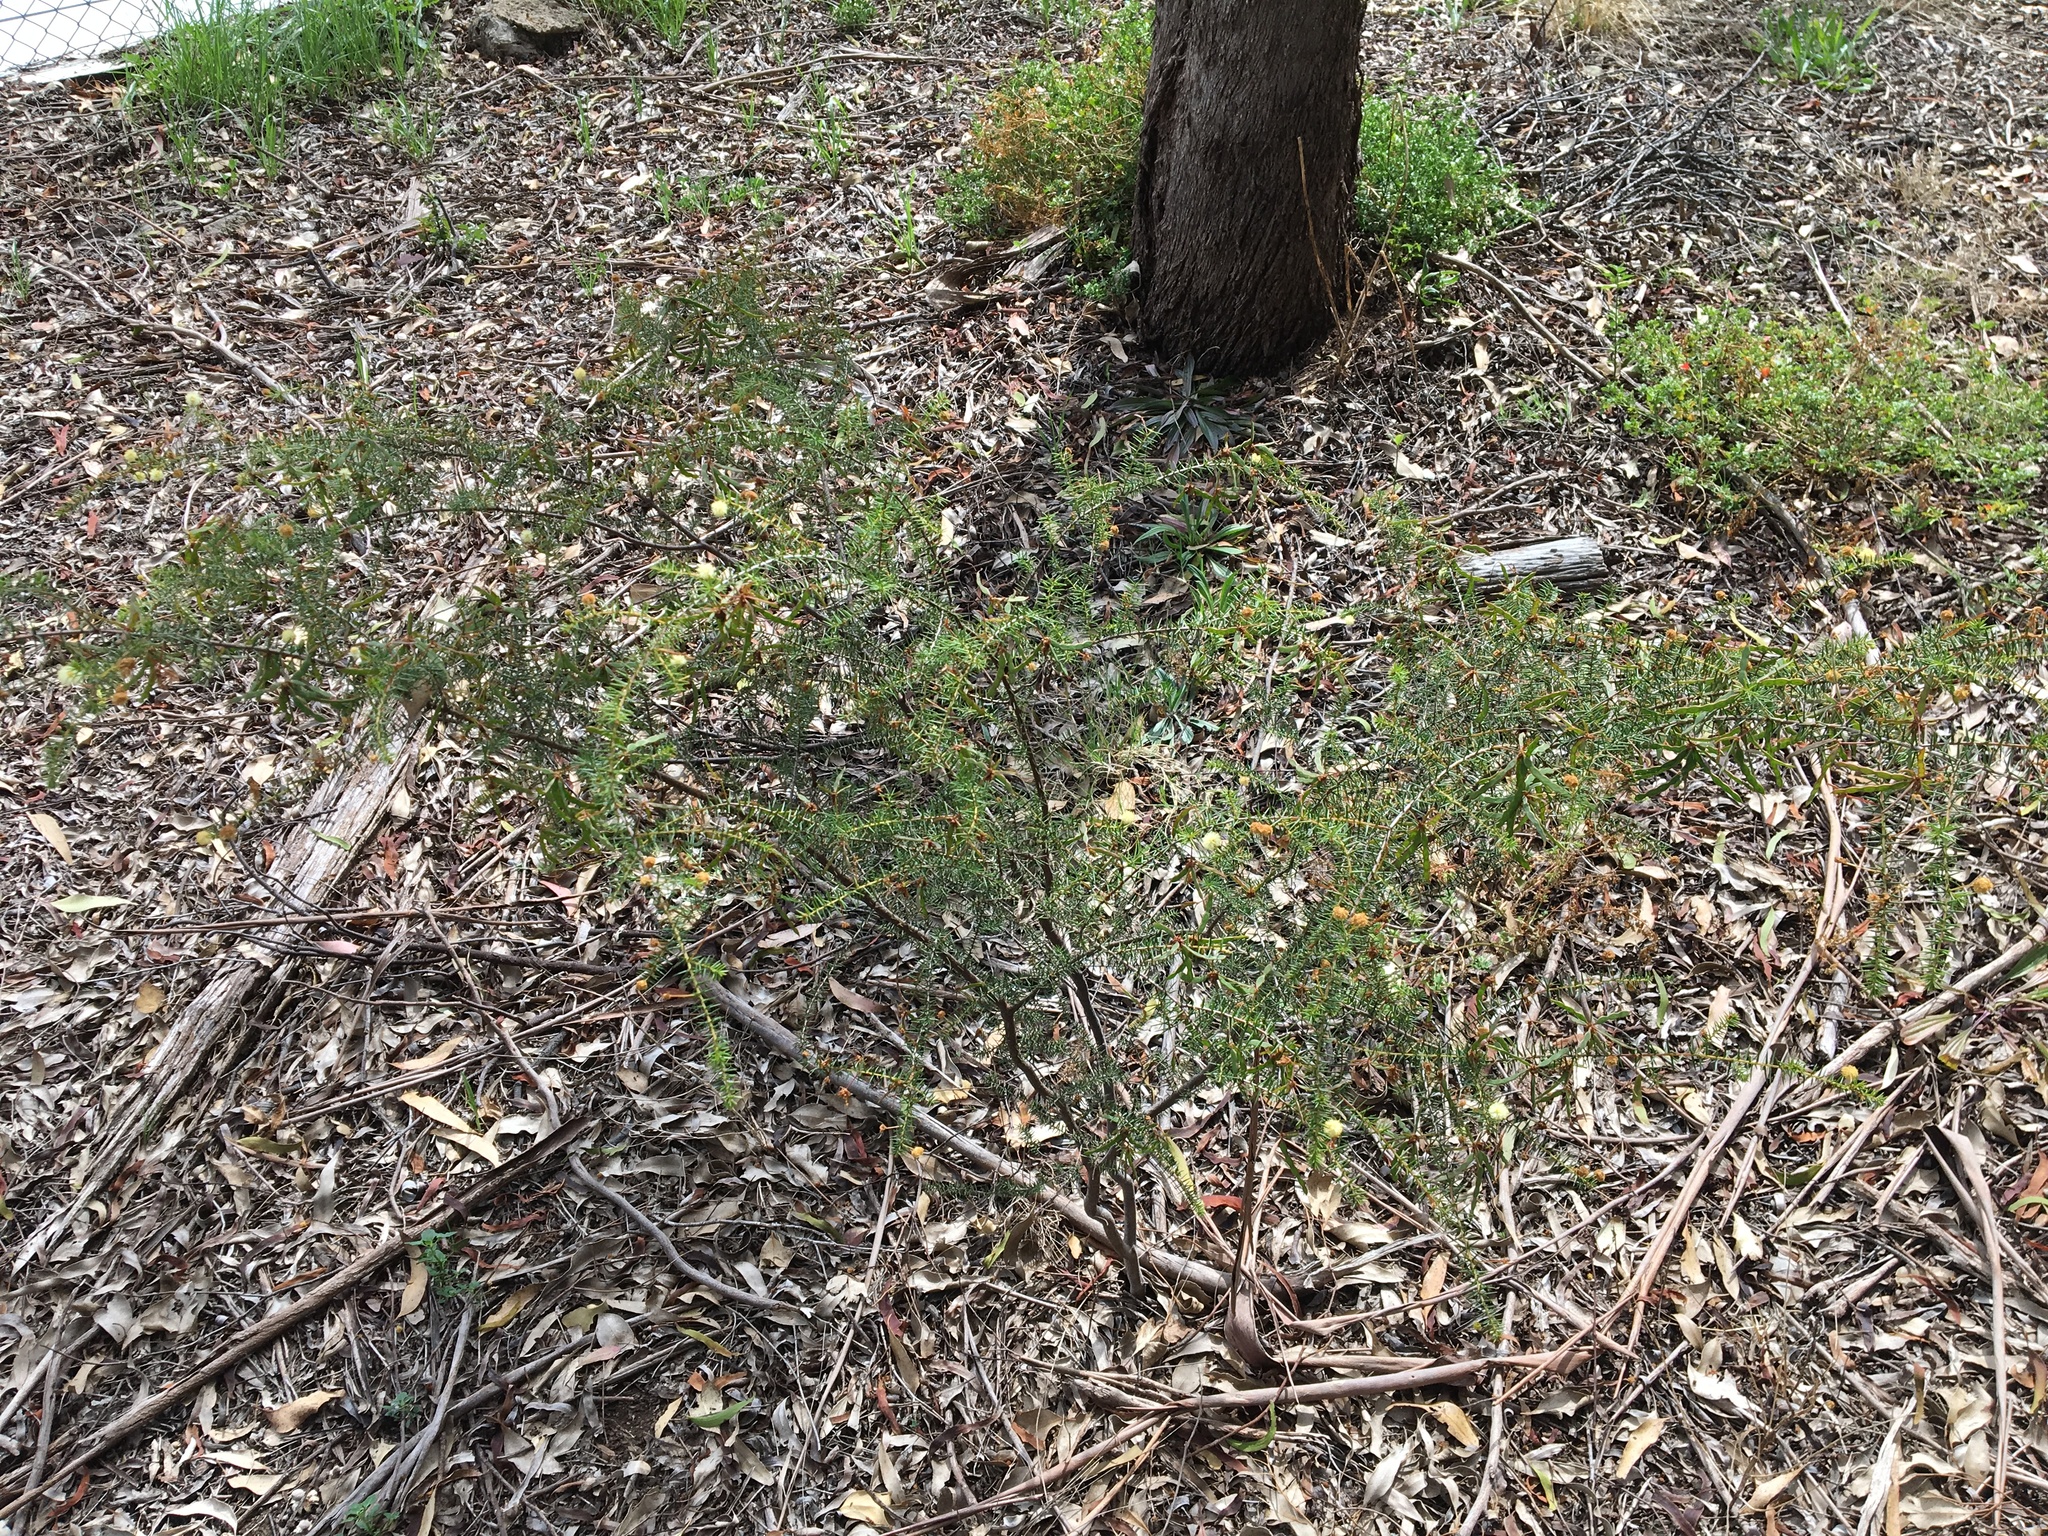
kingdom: Plantae
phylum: Tracheophyta
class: Magnoliopsida
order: Fabales
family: Fabaceae
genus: Acacia
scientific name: Acacia ulicifolia
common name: Juniper wattle
